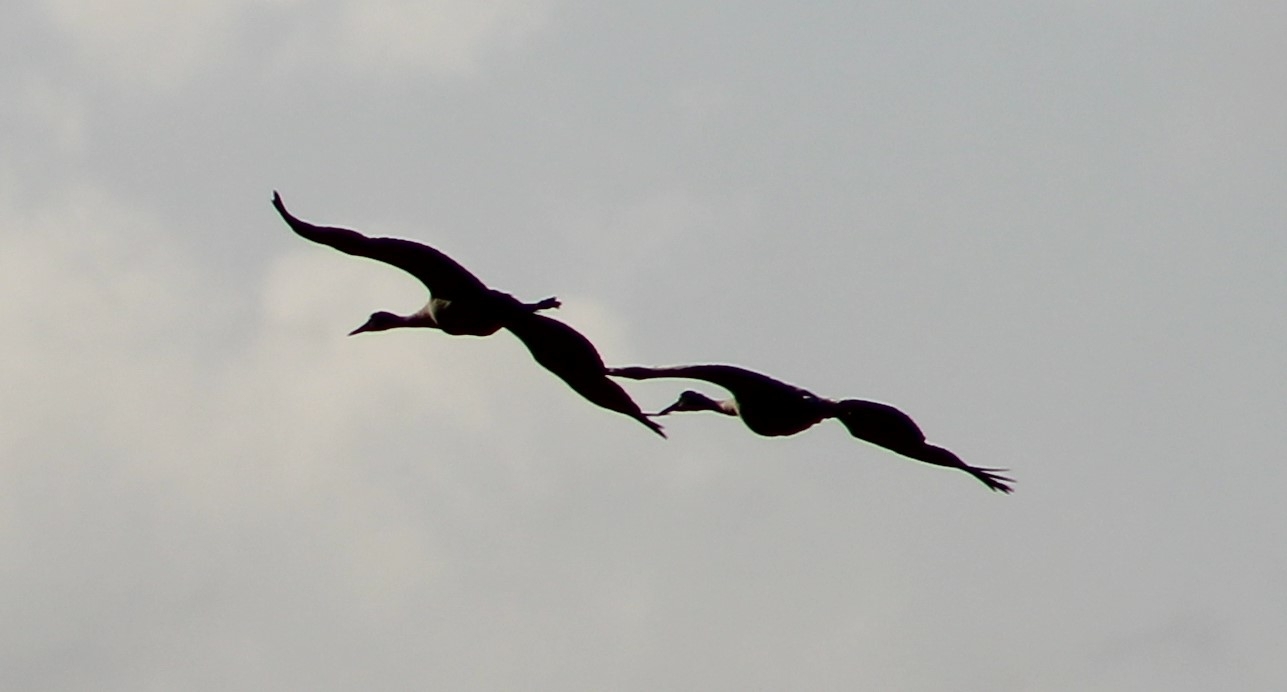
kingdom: Animalia
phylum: Chordata
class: Aves
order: Gruiformes
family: Gruidae
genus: Grus
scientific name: Grus canadensis
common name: Sandhill crane
